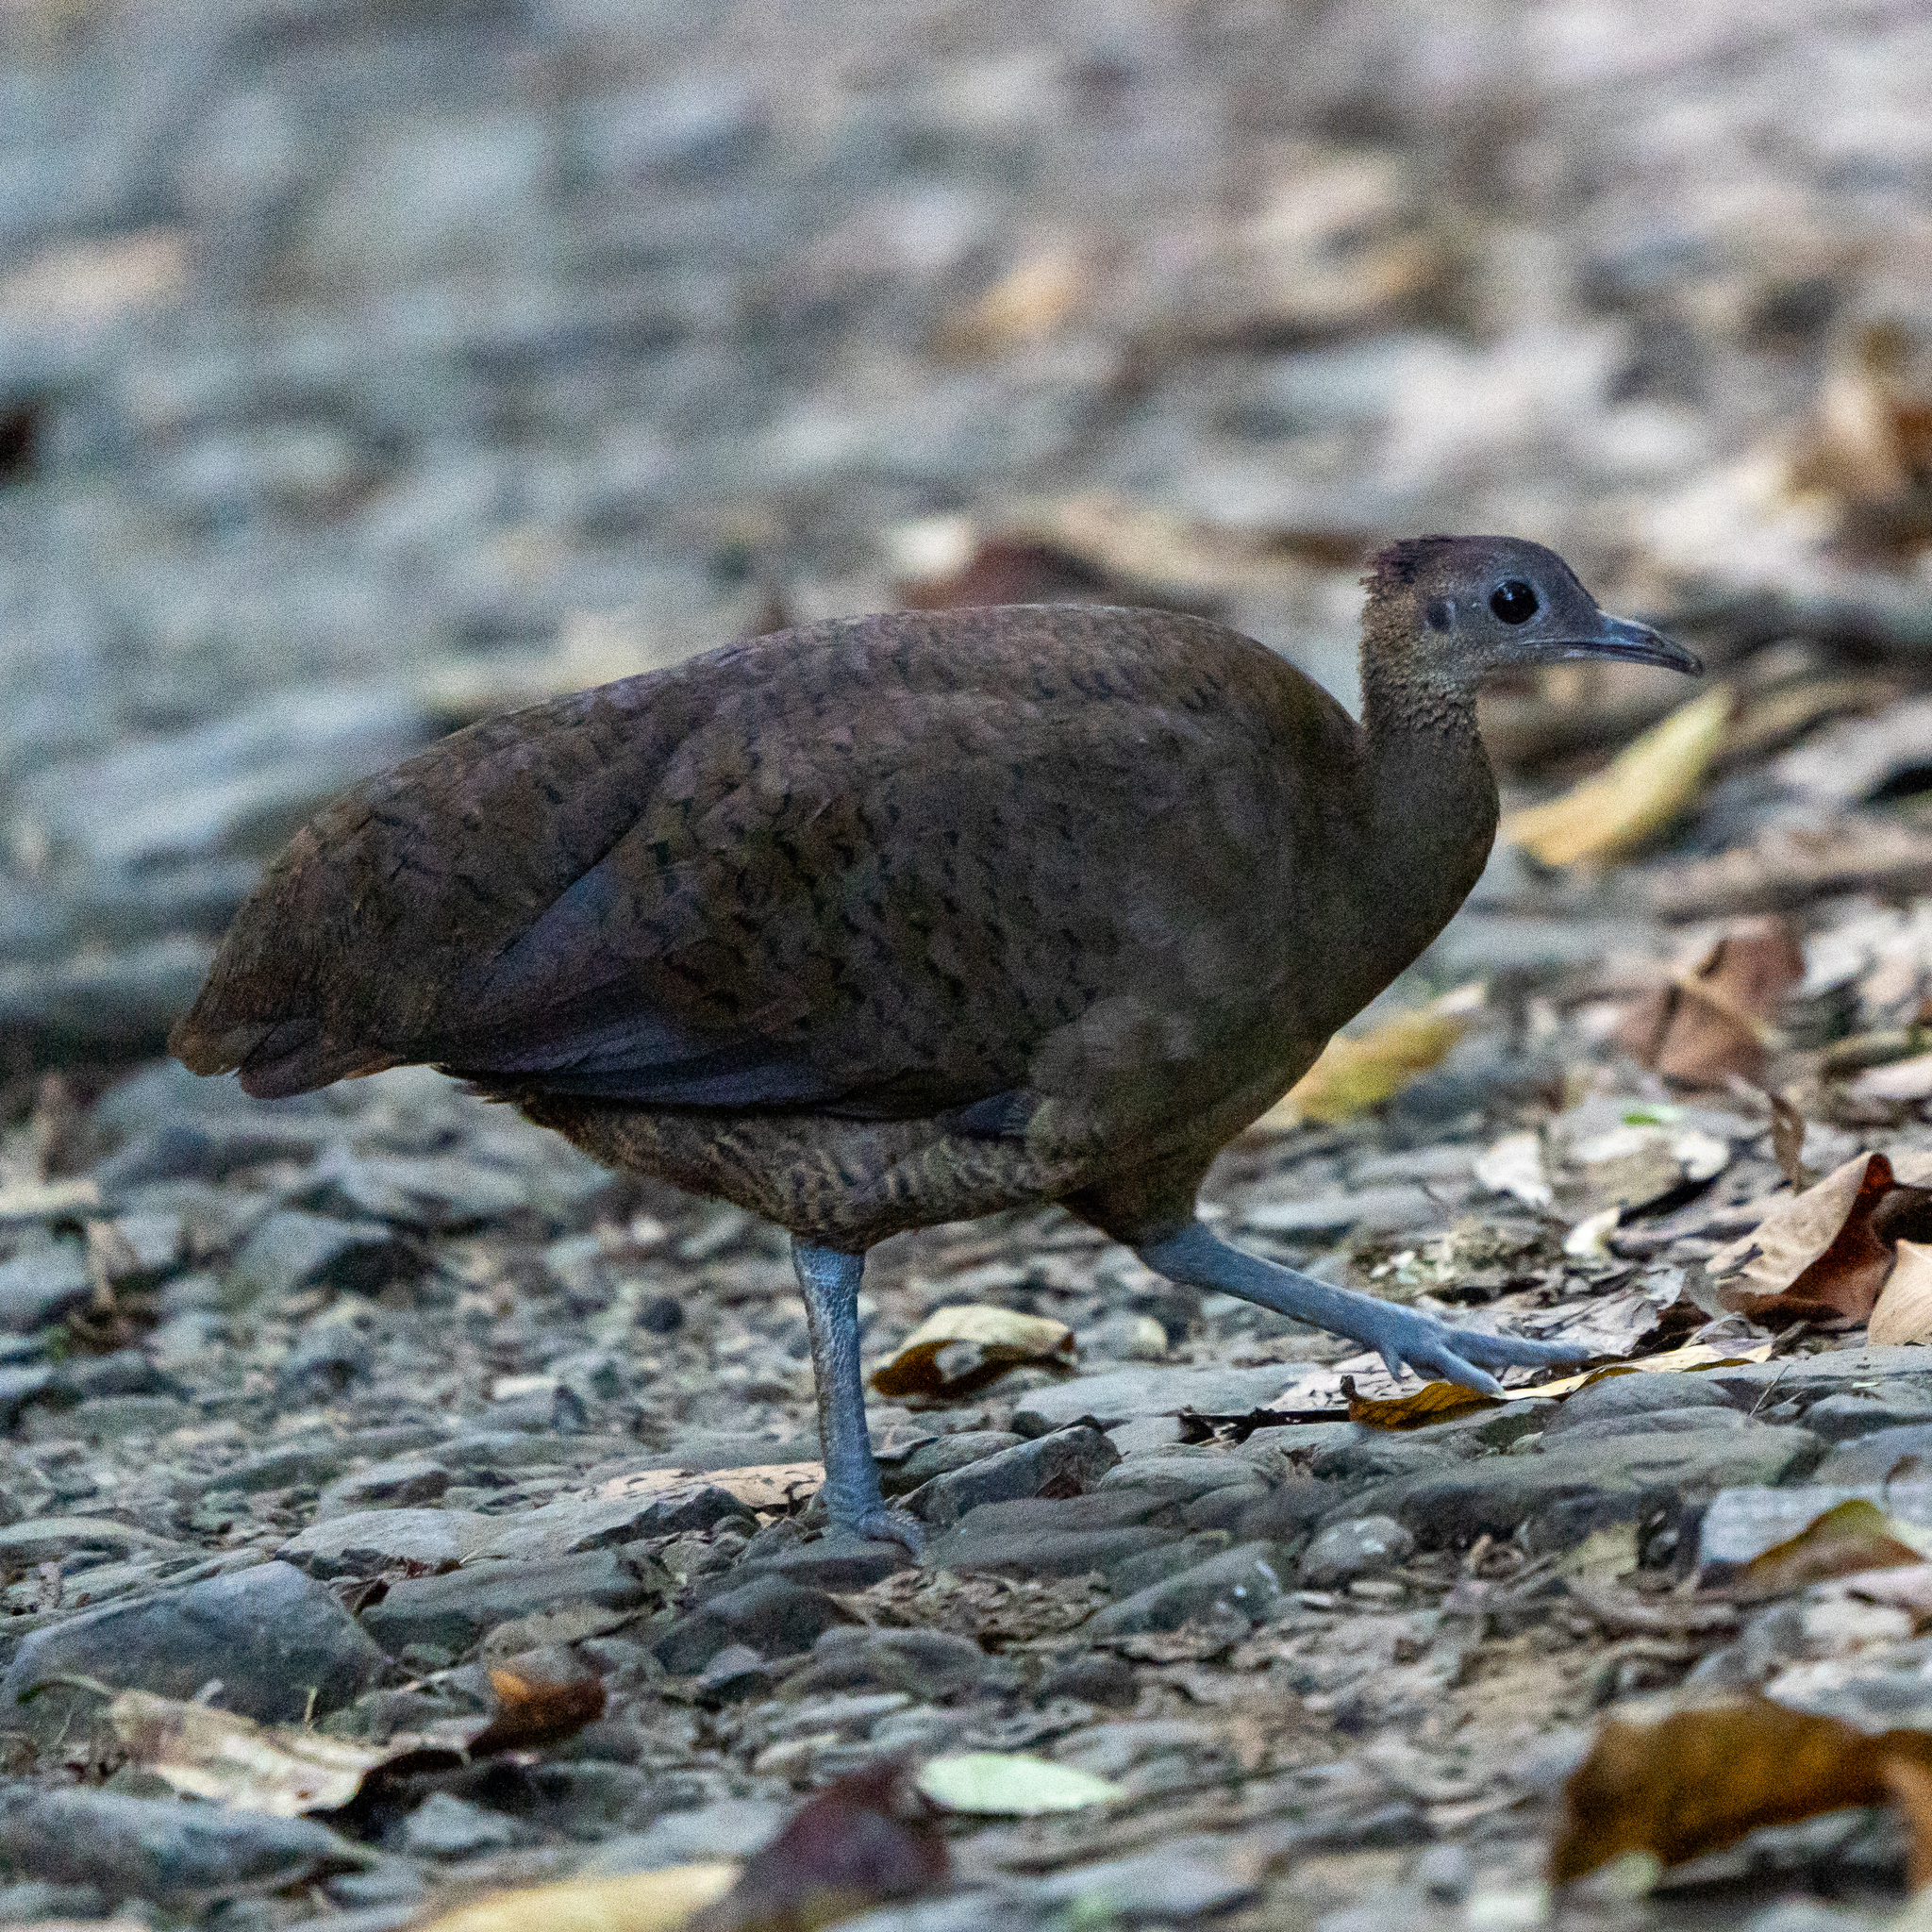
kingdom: Animalia
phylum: Chordata
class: Aves
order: Tinamiformes
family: Tinamidae
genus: Tinamus
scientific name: Tinamus major
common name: Great tinamou
